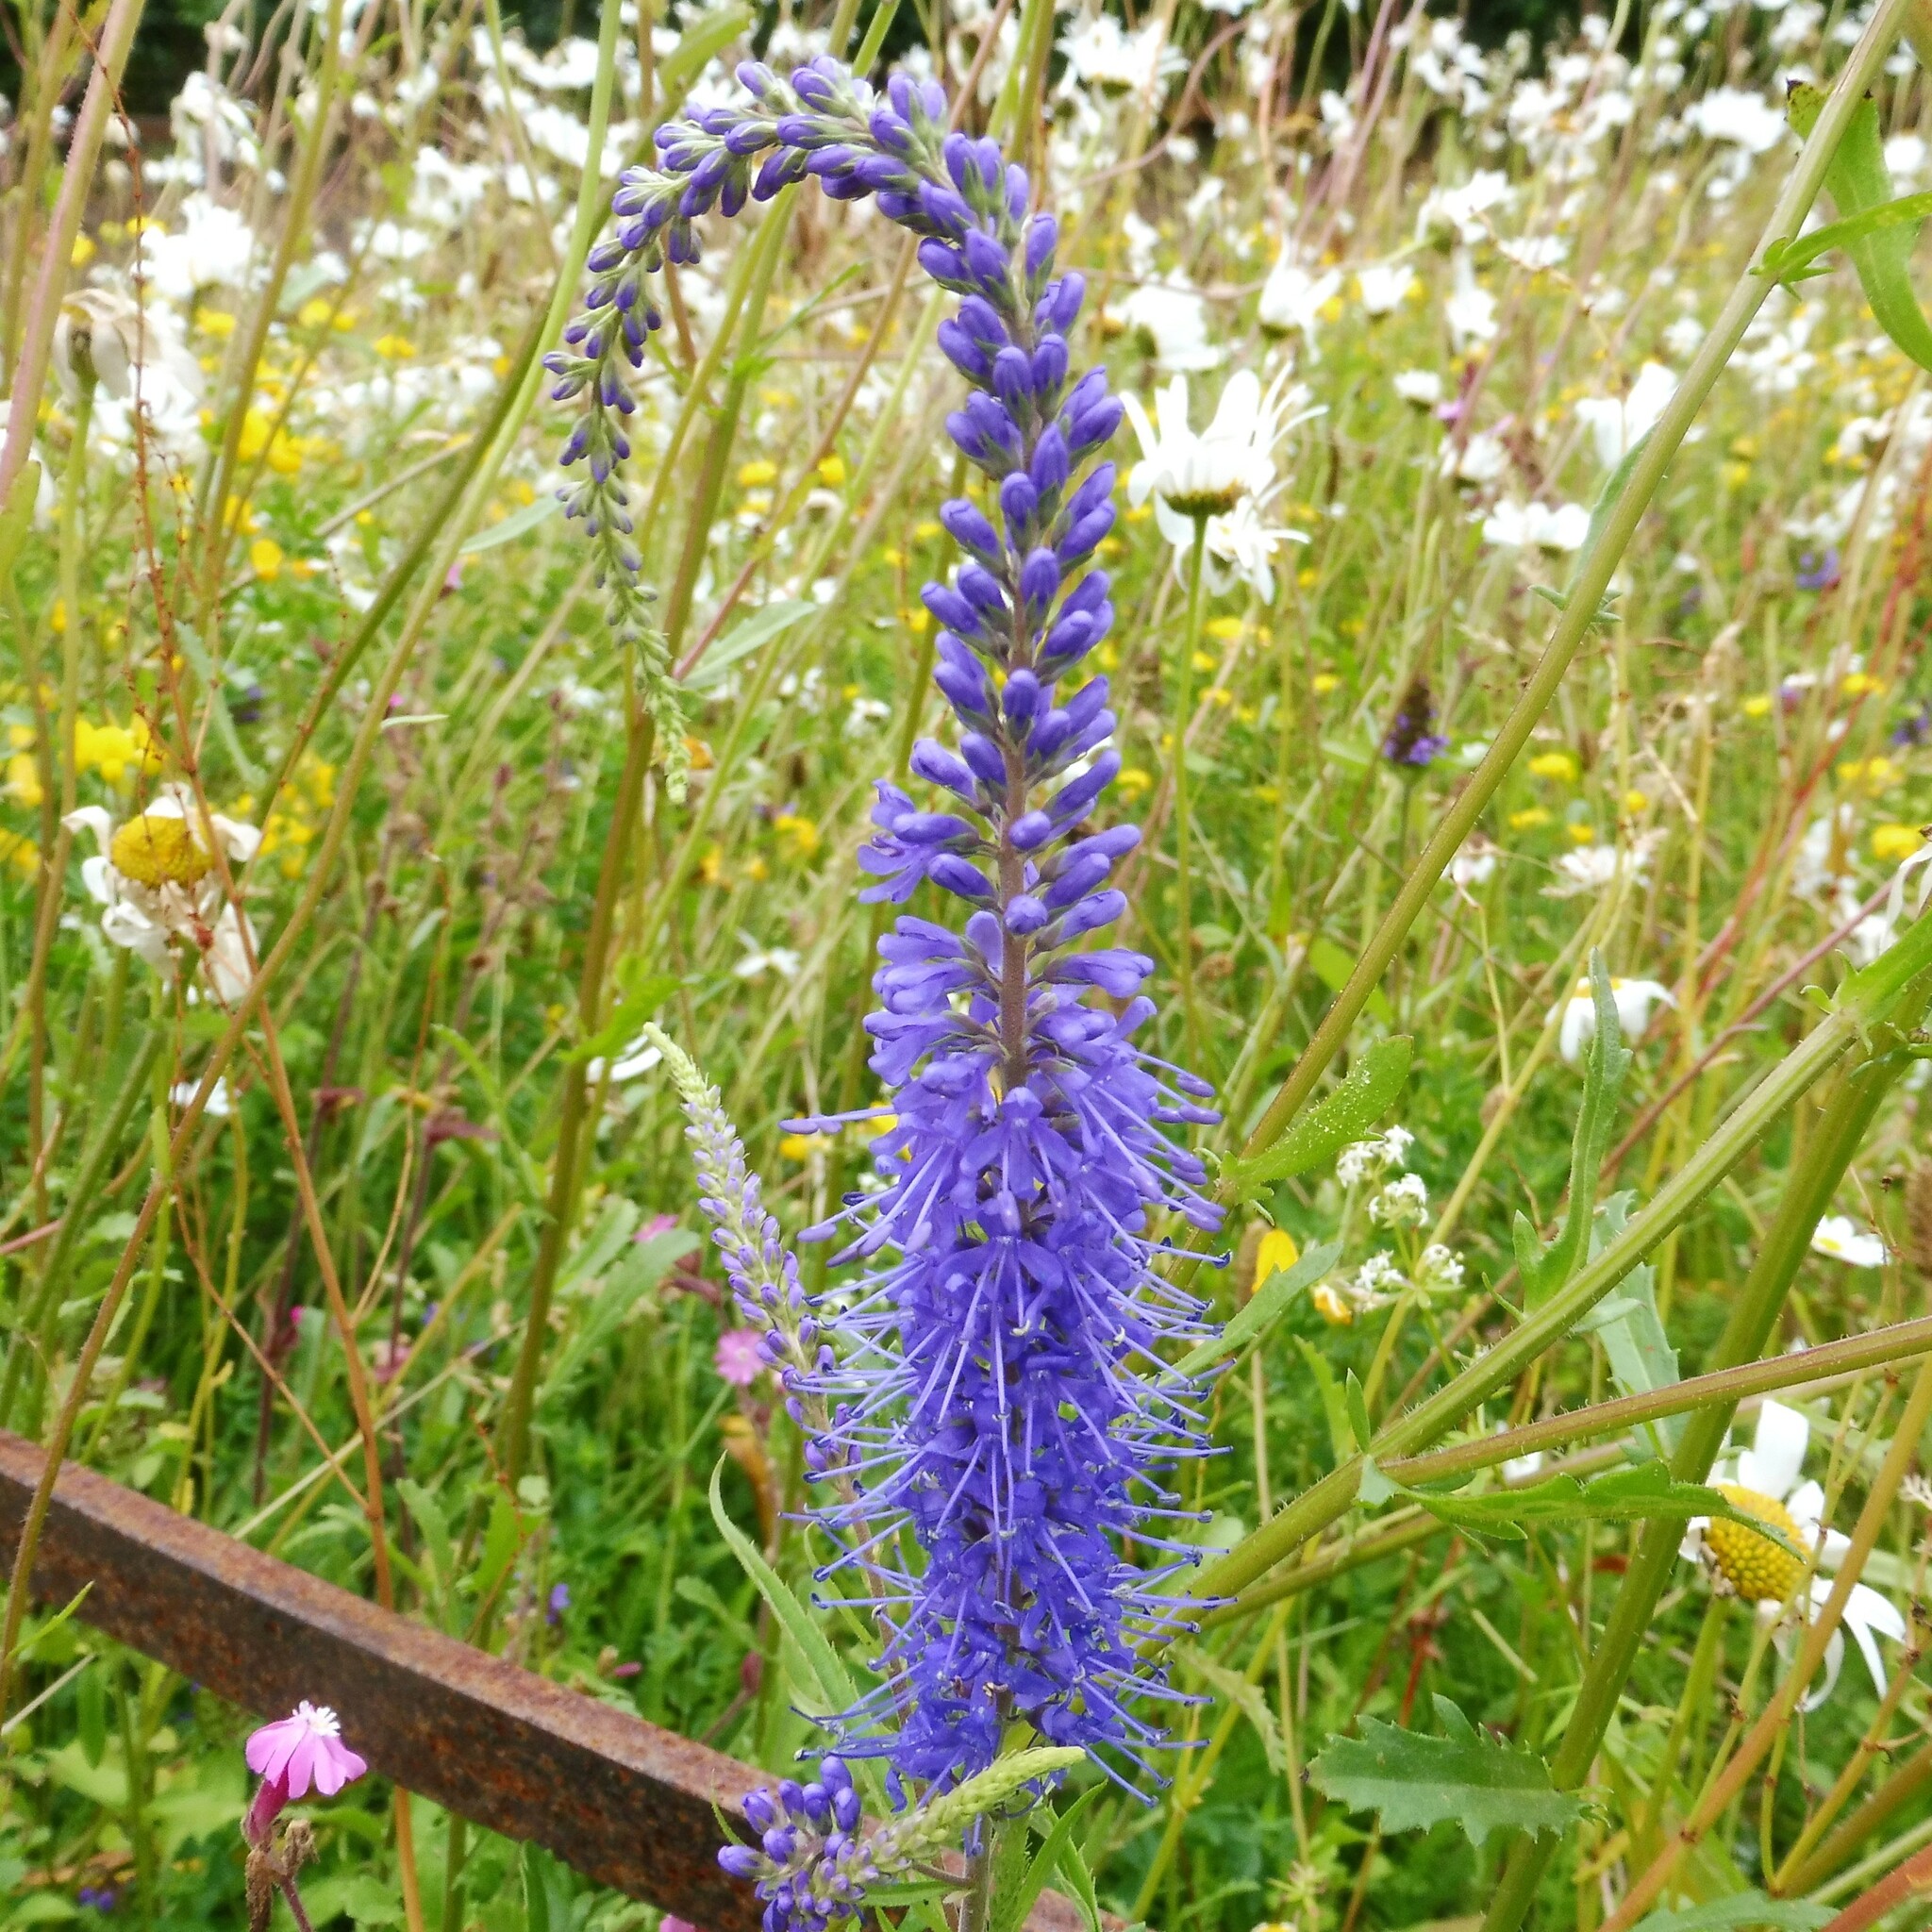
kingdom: Plantae
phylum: Tracheophyta
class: Magnoliopsida
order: Lamiales
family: Plantaginaceae
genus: Veronica
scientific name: Veronica longifolia
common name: Garden speedwell
